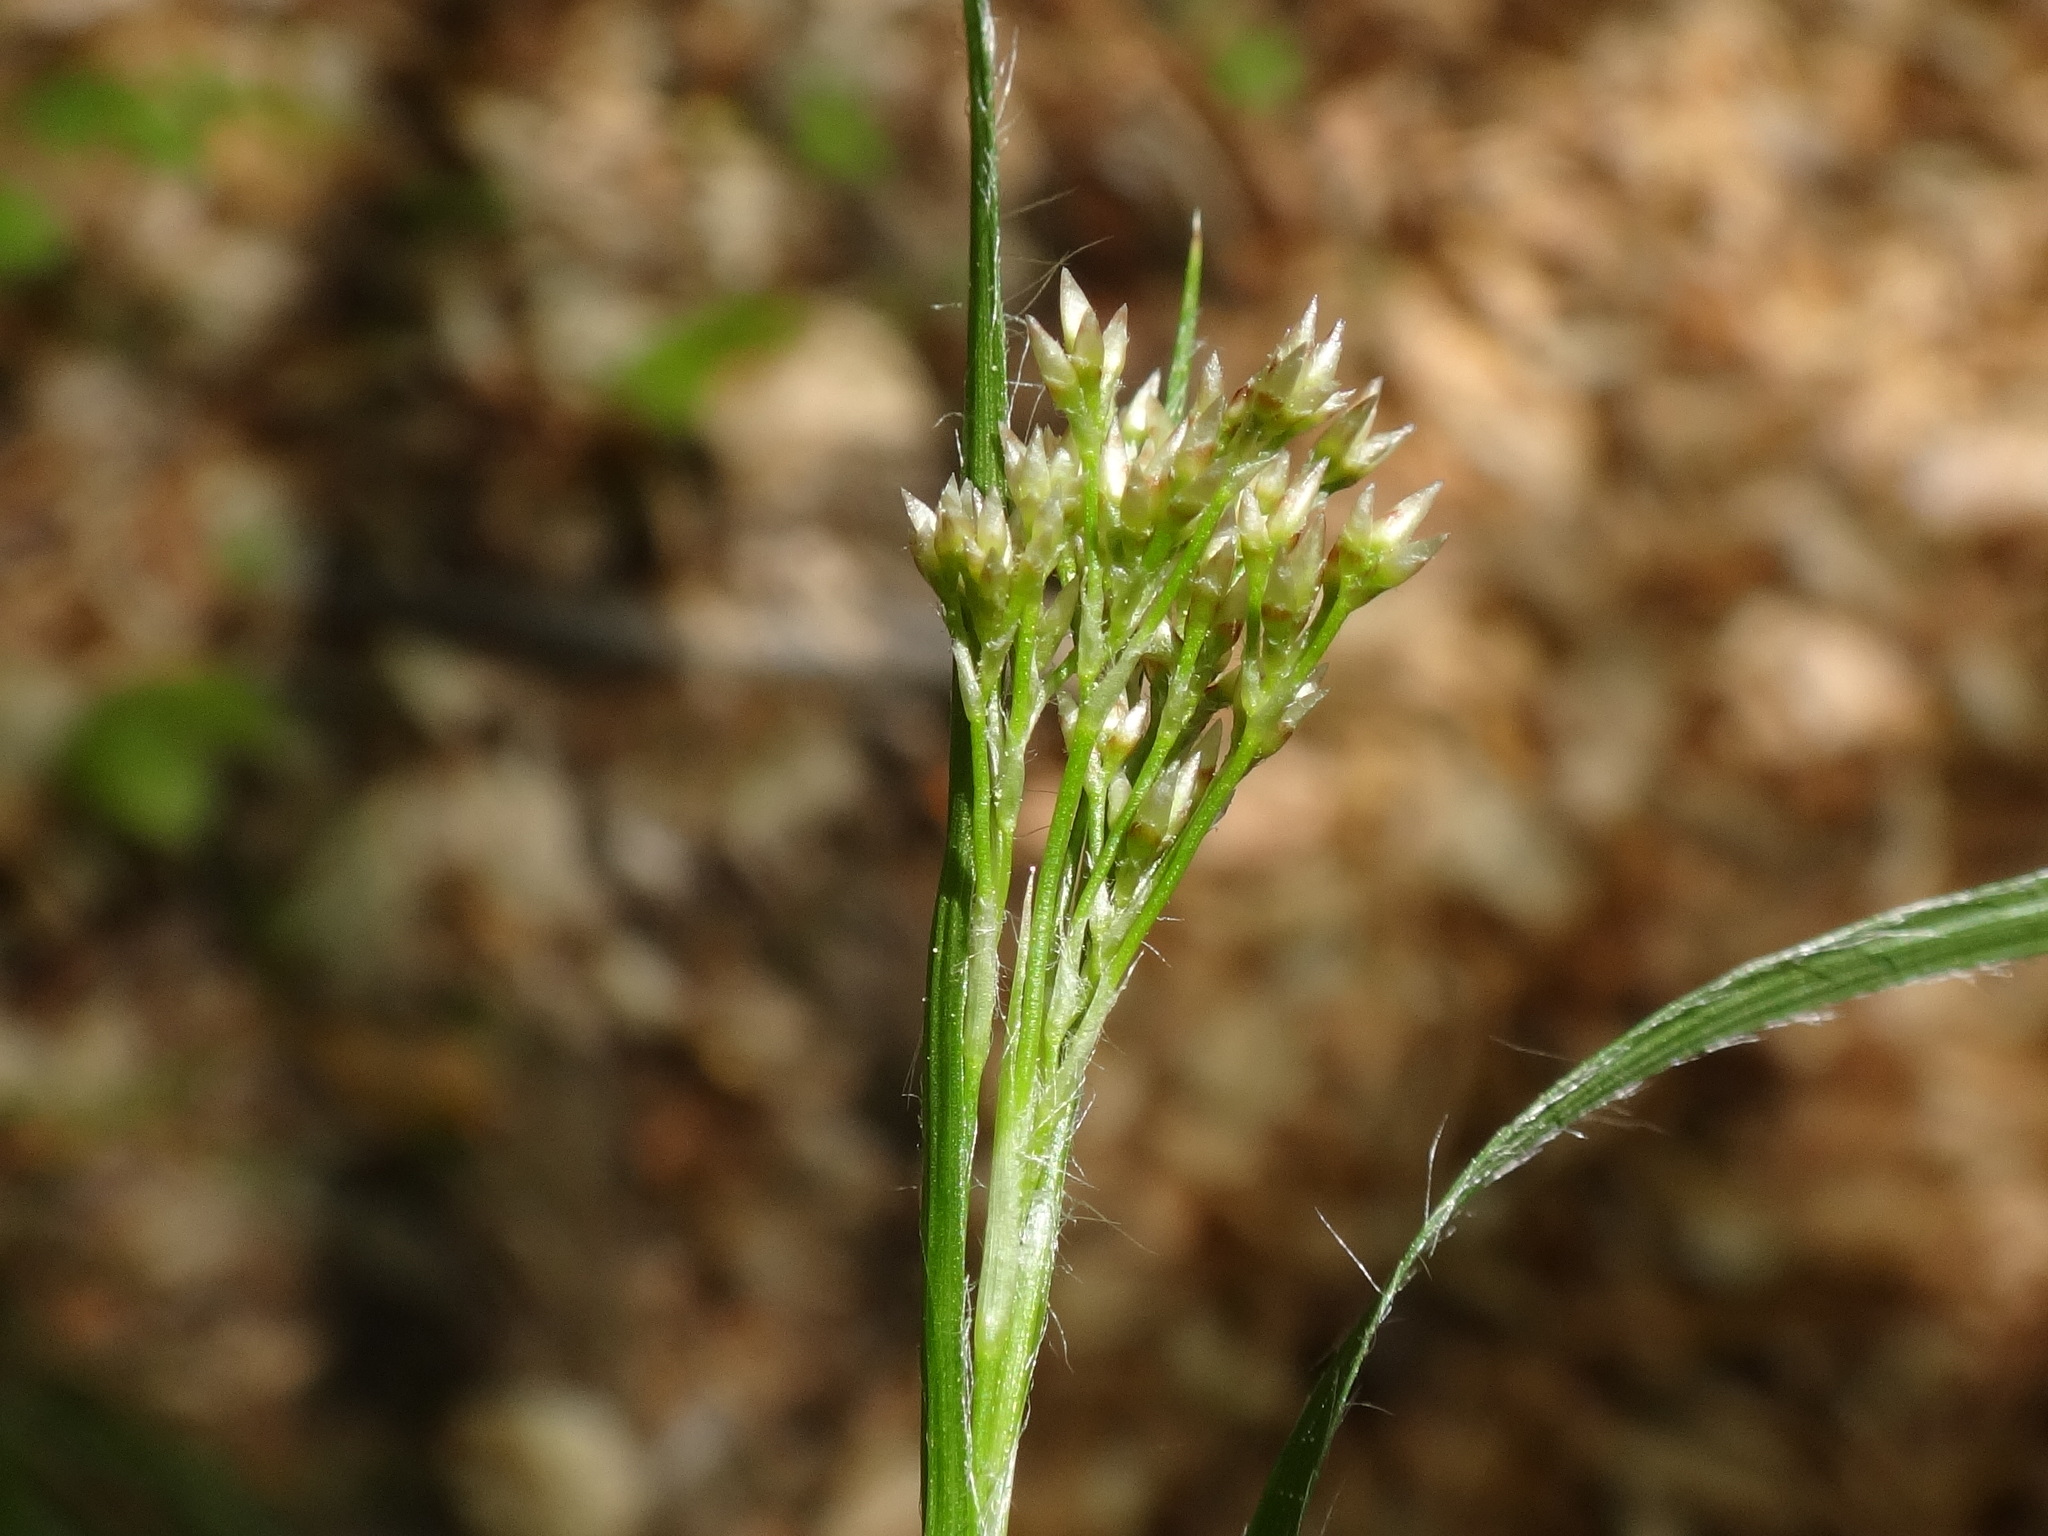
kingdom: Plantae
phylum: Tracheophyta
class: Liliopsida
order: Poales
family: Juncaceae
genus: Luzula
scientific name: Luzula luzuloides
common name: White wood-rush
